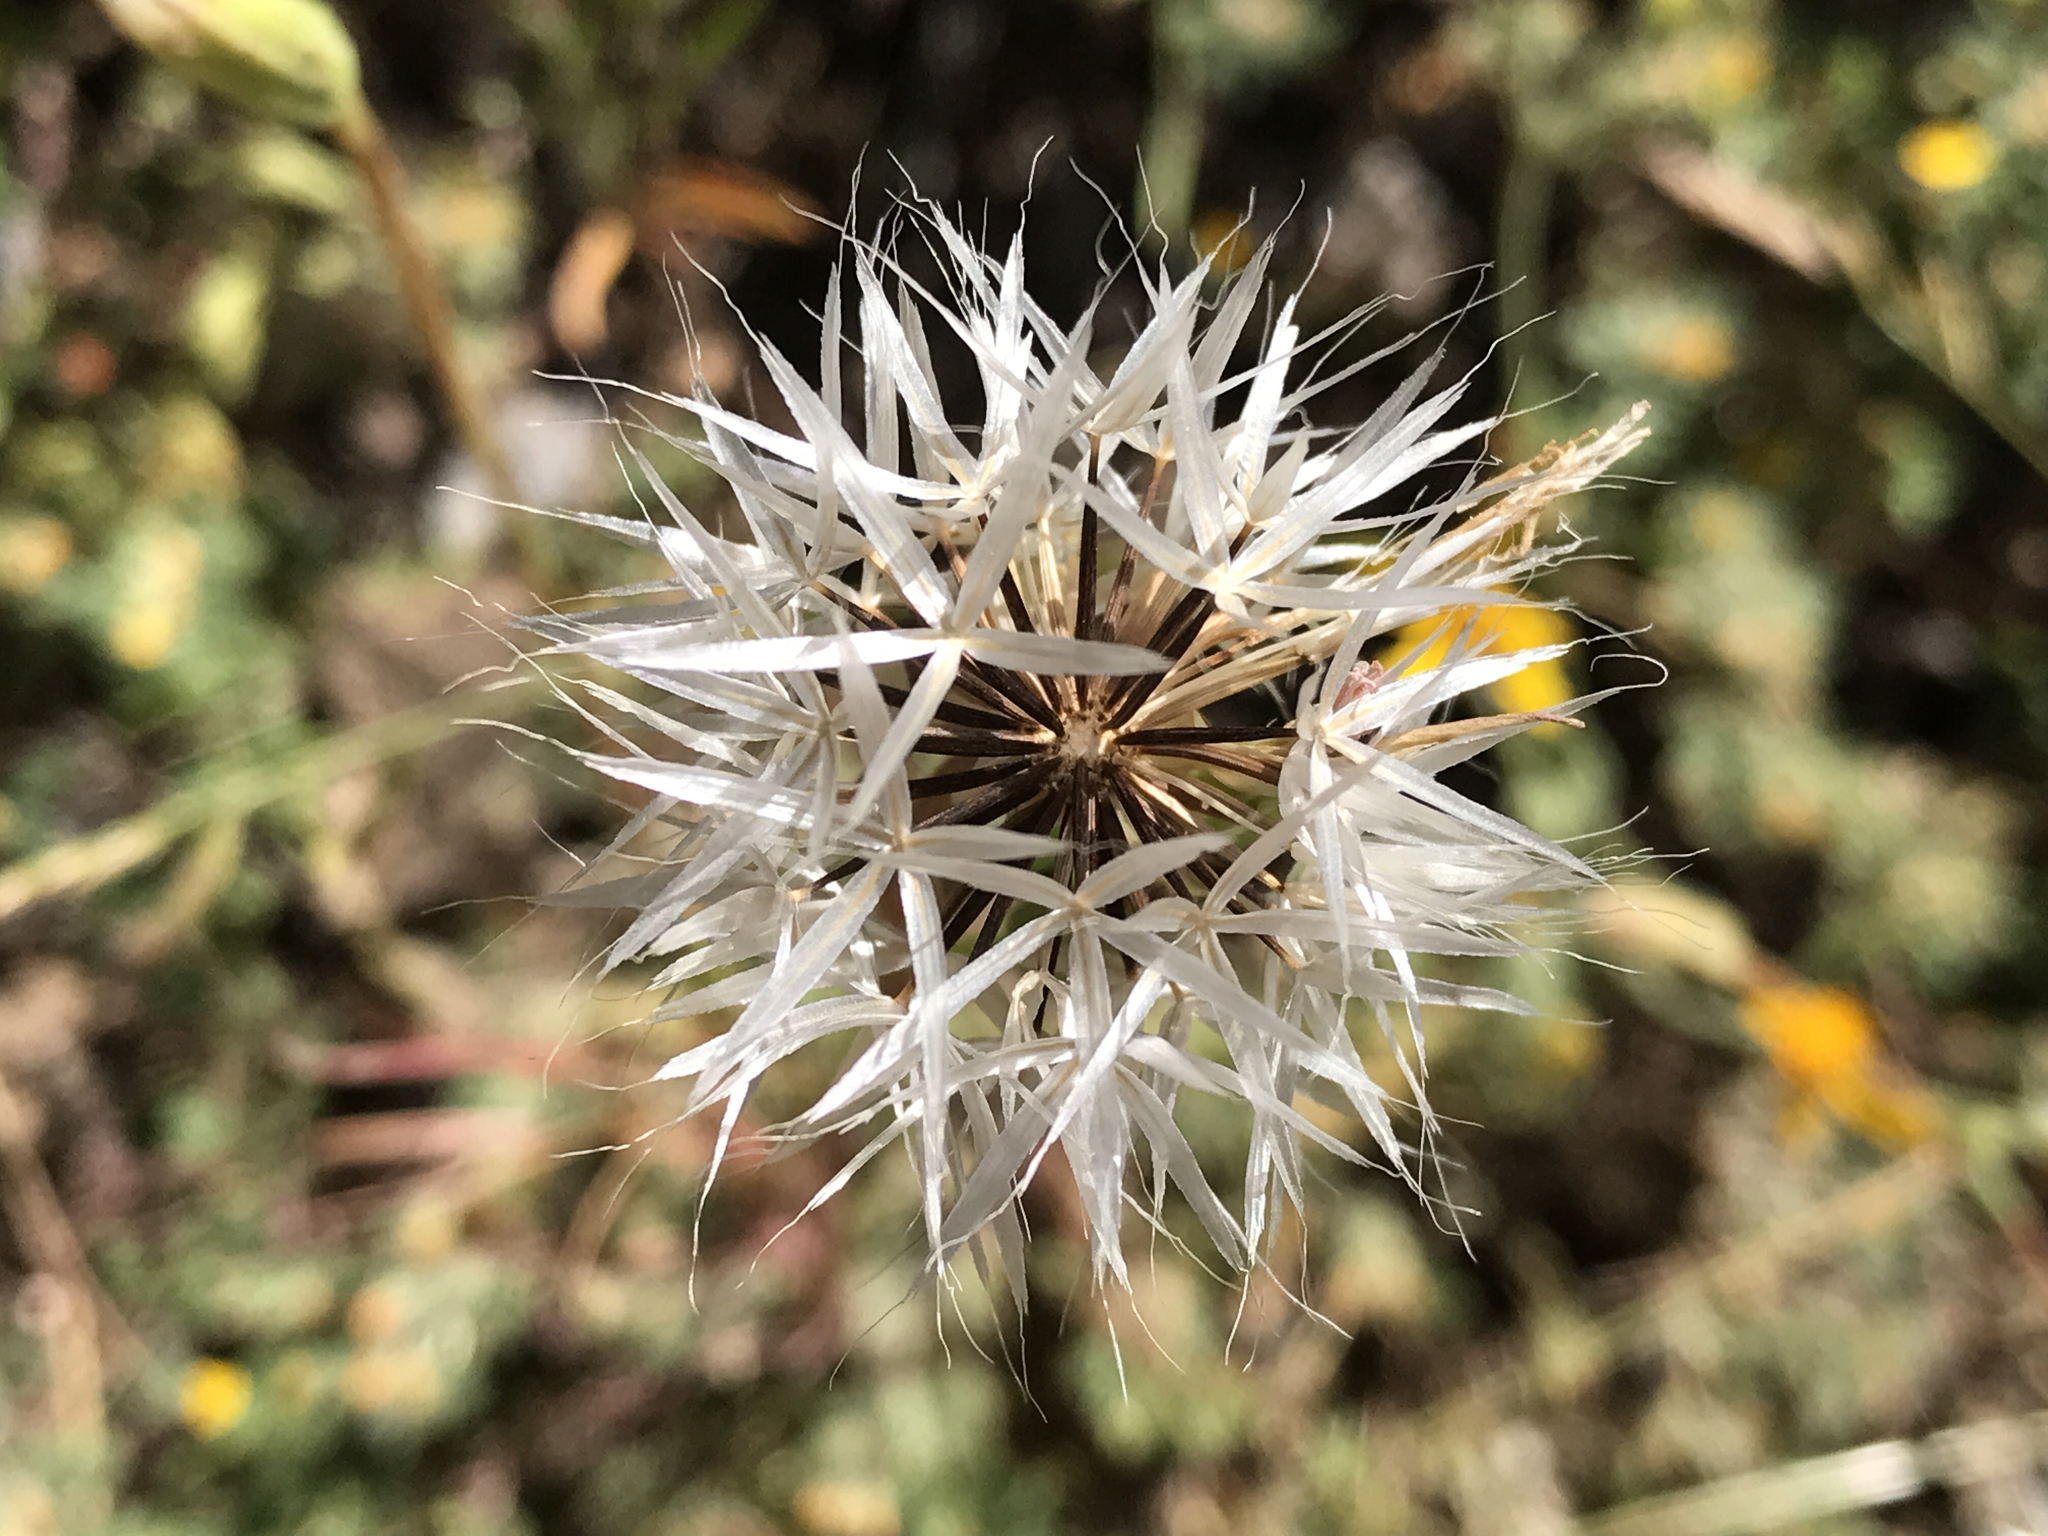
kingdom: Plantae
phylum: Tracheophyta
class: Magnoliopsida
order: Asterales
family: Asteraceae
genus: Microseris
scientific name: Microseris lindleyi
